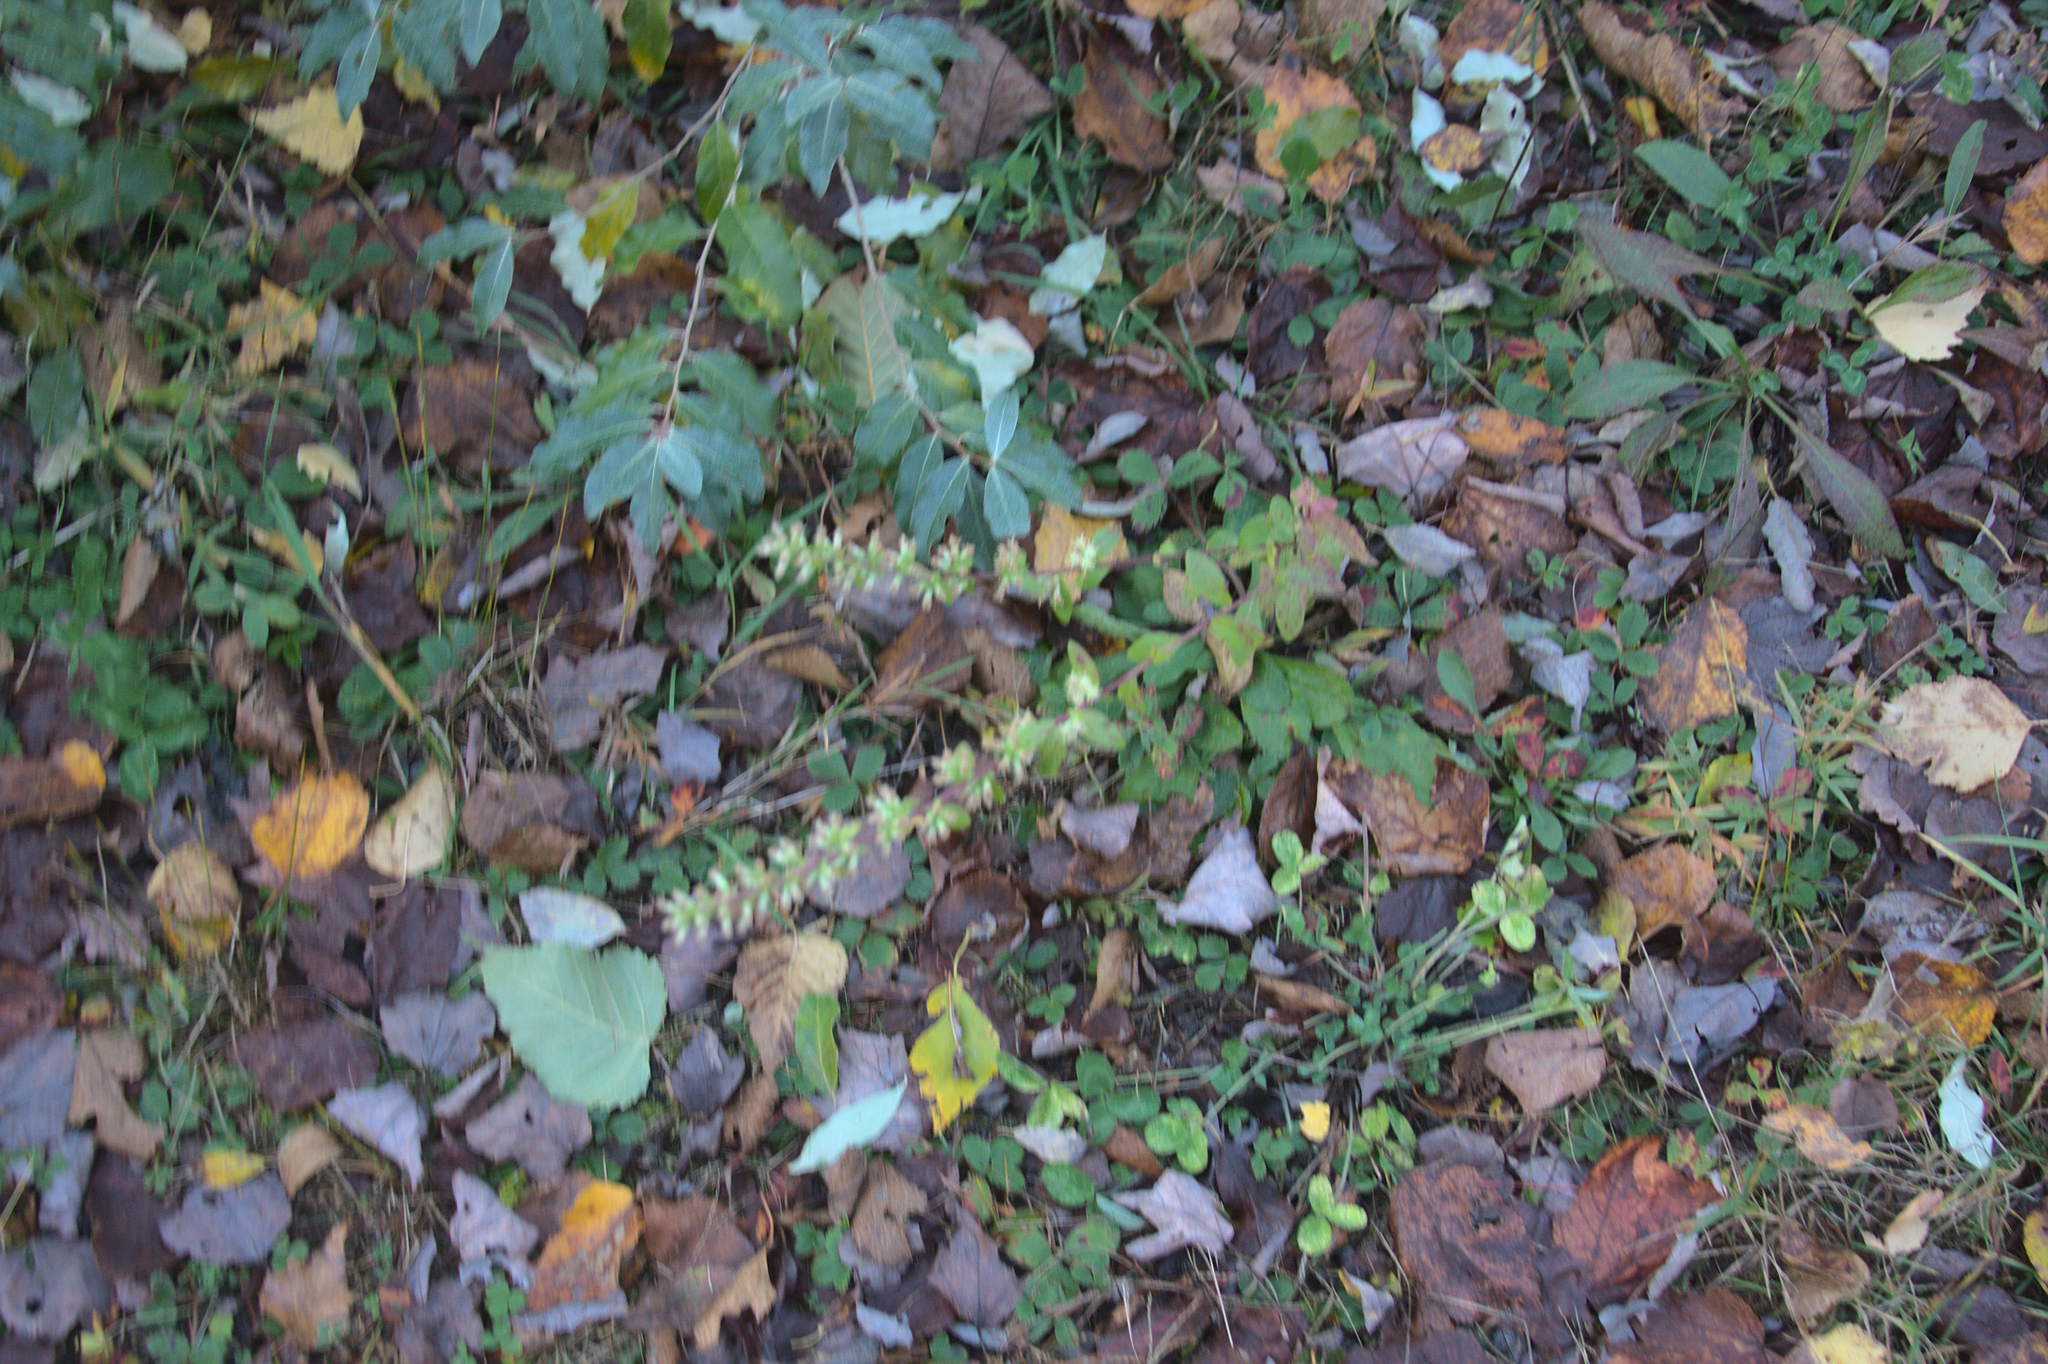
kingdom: Plantae
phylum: Tracheophyta
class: Magnoliopsida
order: Asterales
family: Asteraceae
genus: Solidago
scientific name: Solidago bicolor
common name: Silverrod
